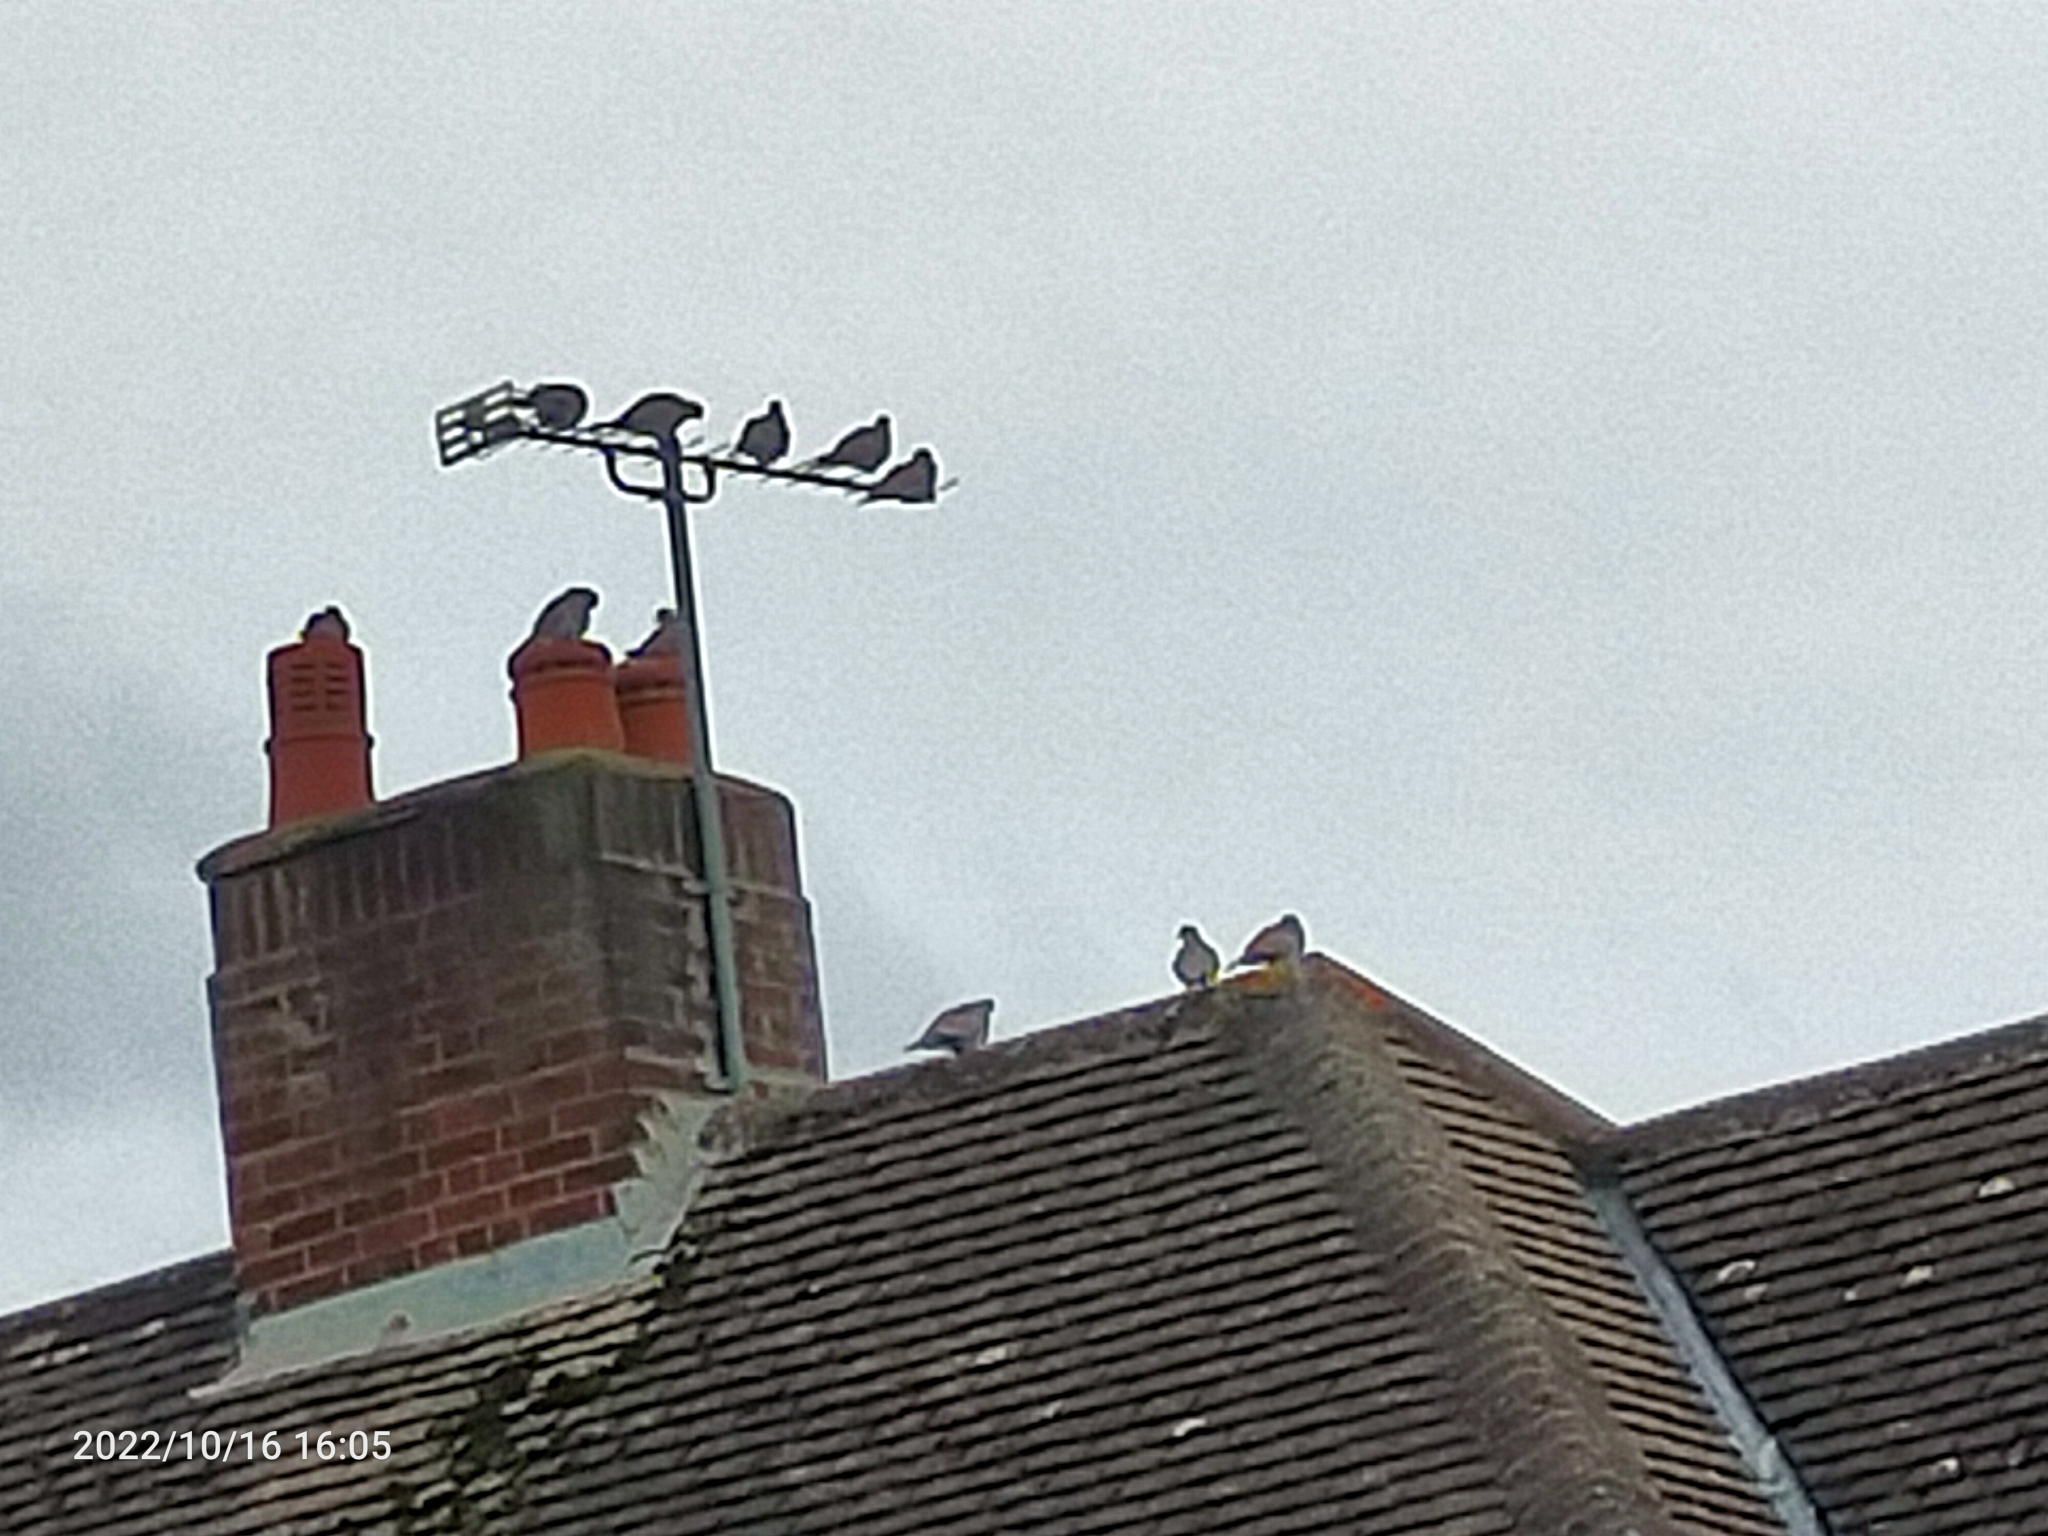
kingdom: Animalia
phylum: Chordata
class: Aves
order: Columbiformes
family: Columbidae
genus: Streptopelia
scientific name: Streptopelia decaocto
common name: Eurasian collared dove
